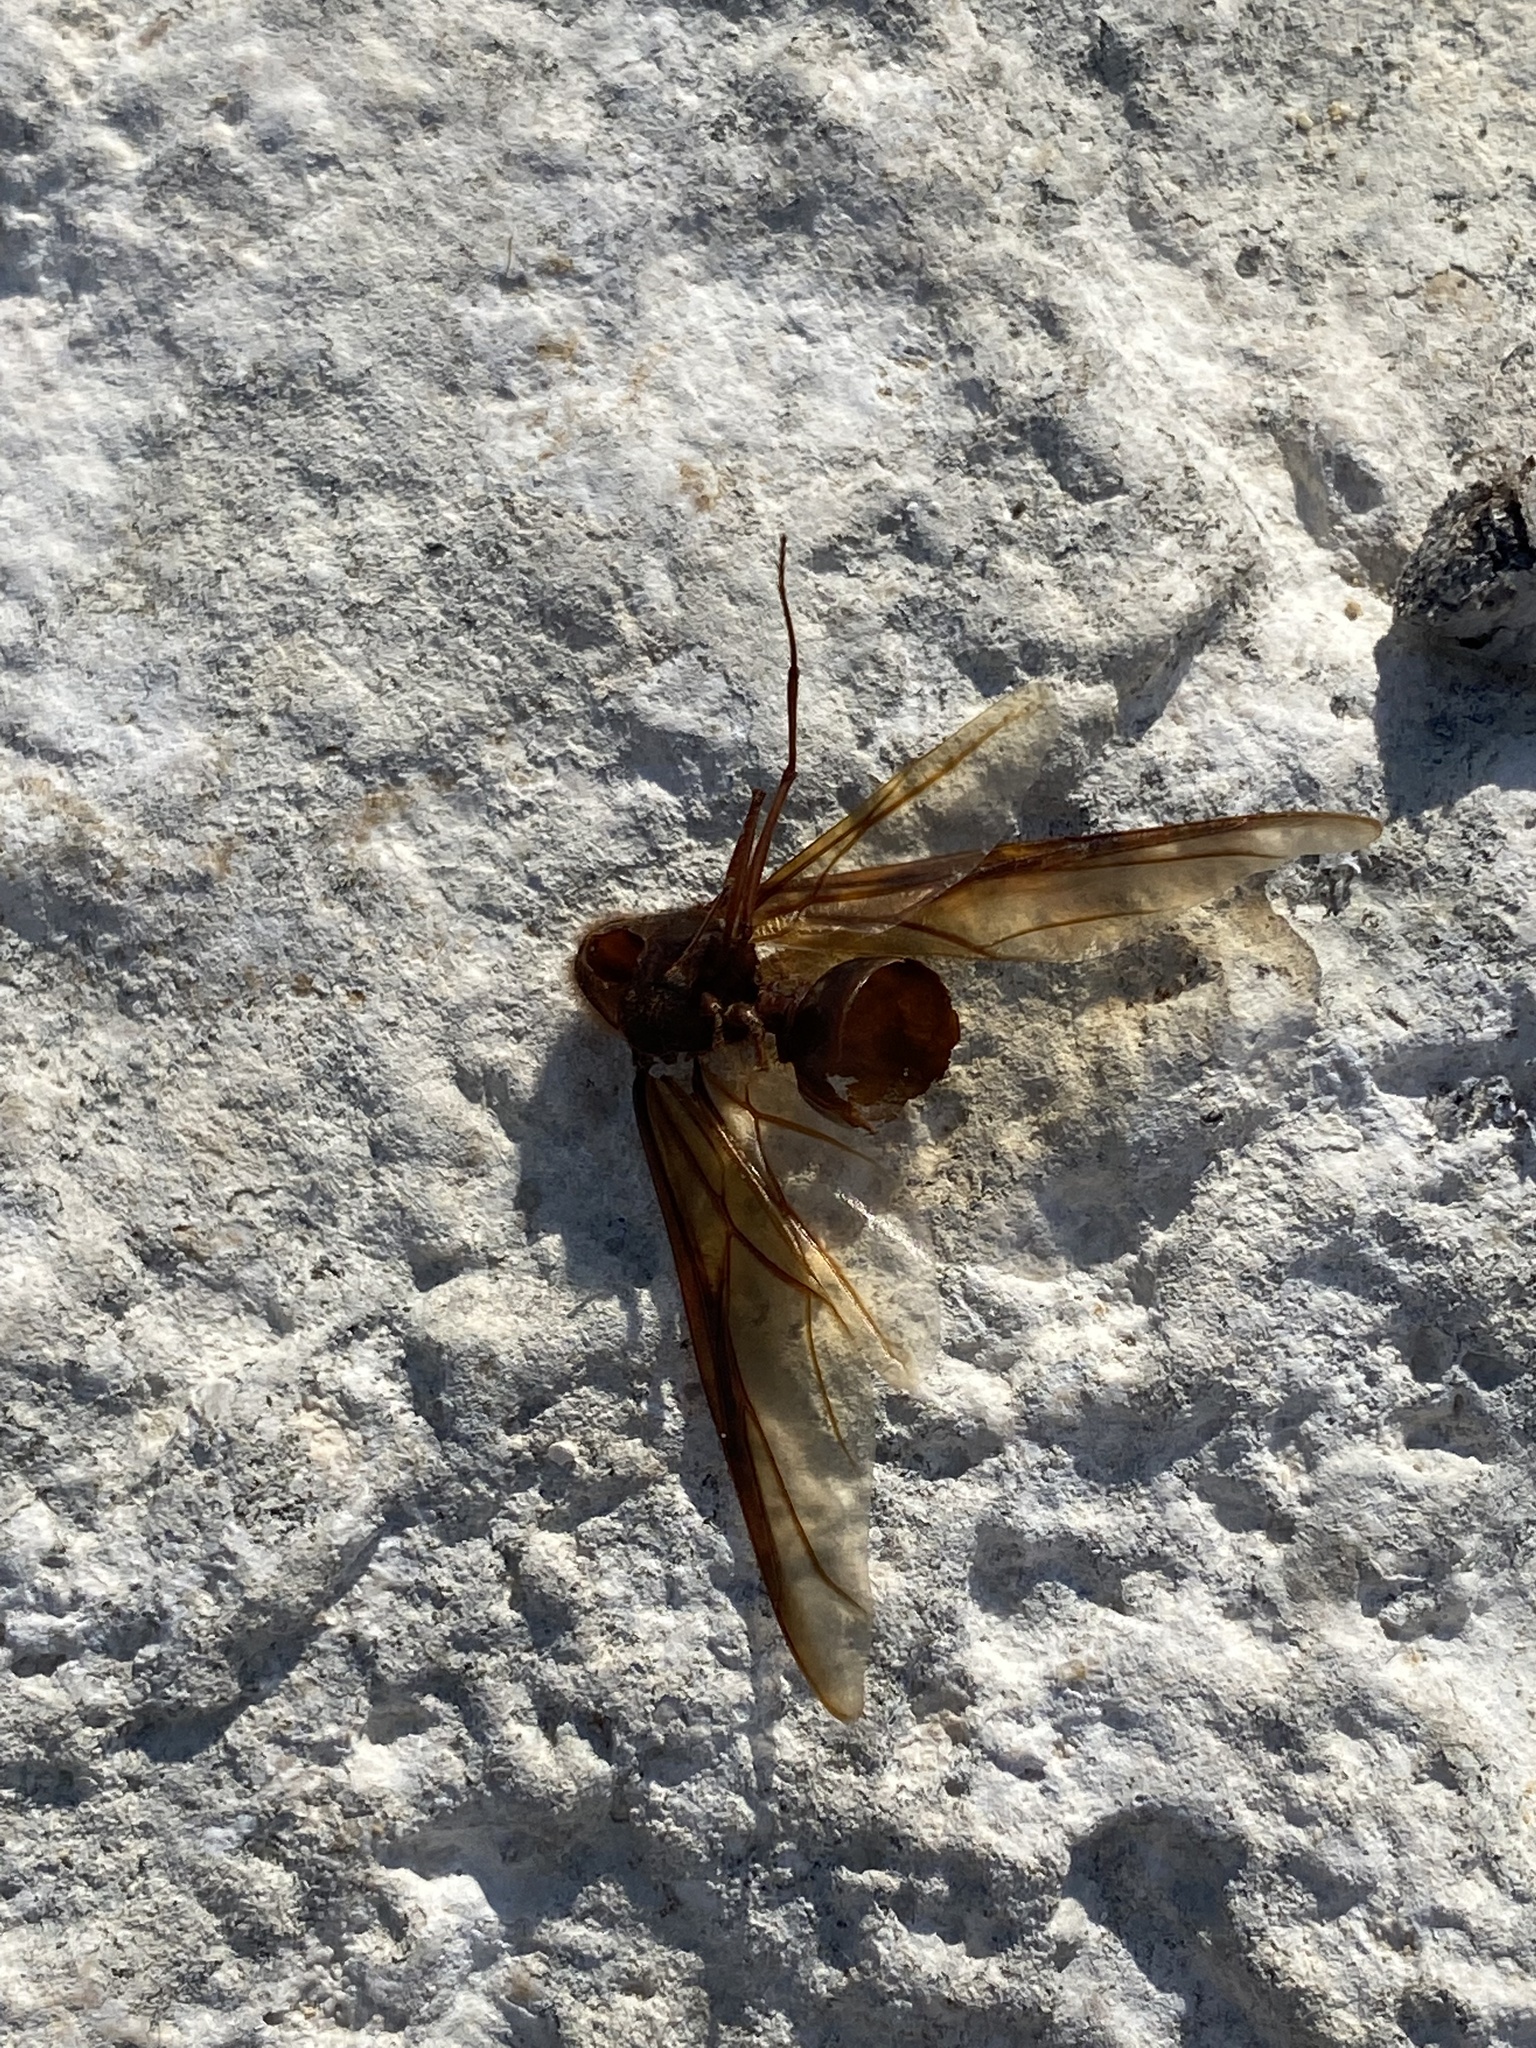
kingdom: Animalia
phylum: Arthropoda
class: Insecta
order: Hymenoptera
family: Formicidae
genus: Atta
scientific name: Atta texana
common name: Texas leafcutting ant
